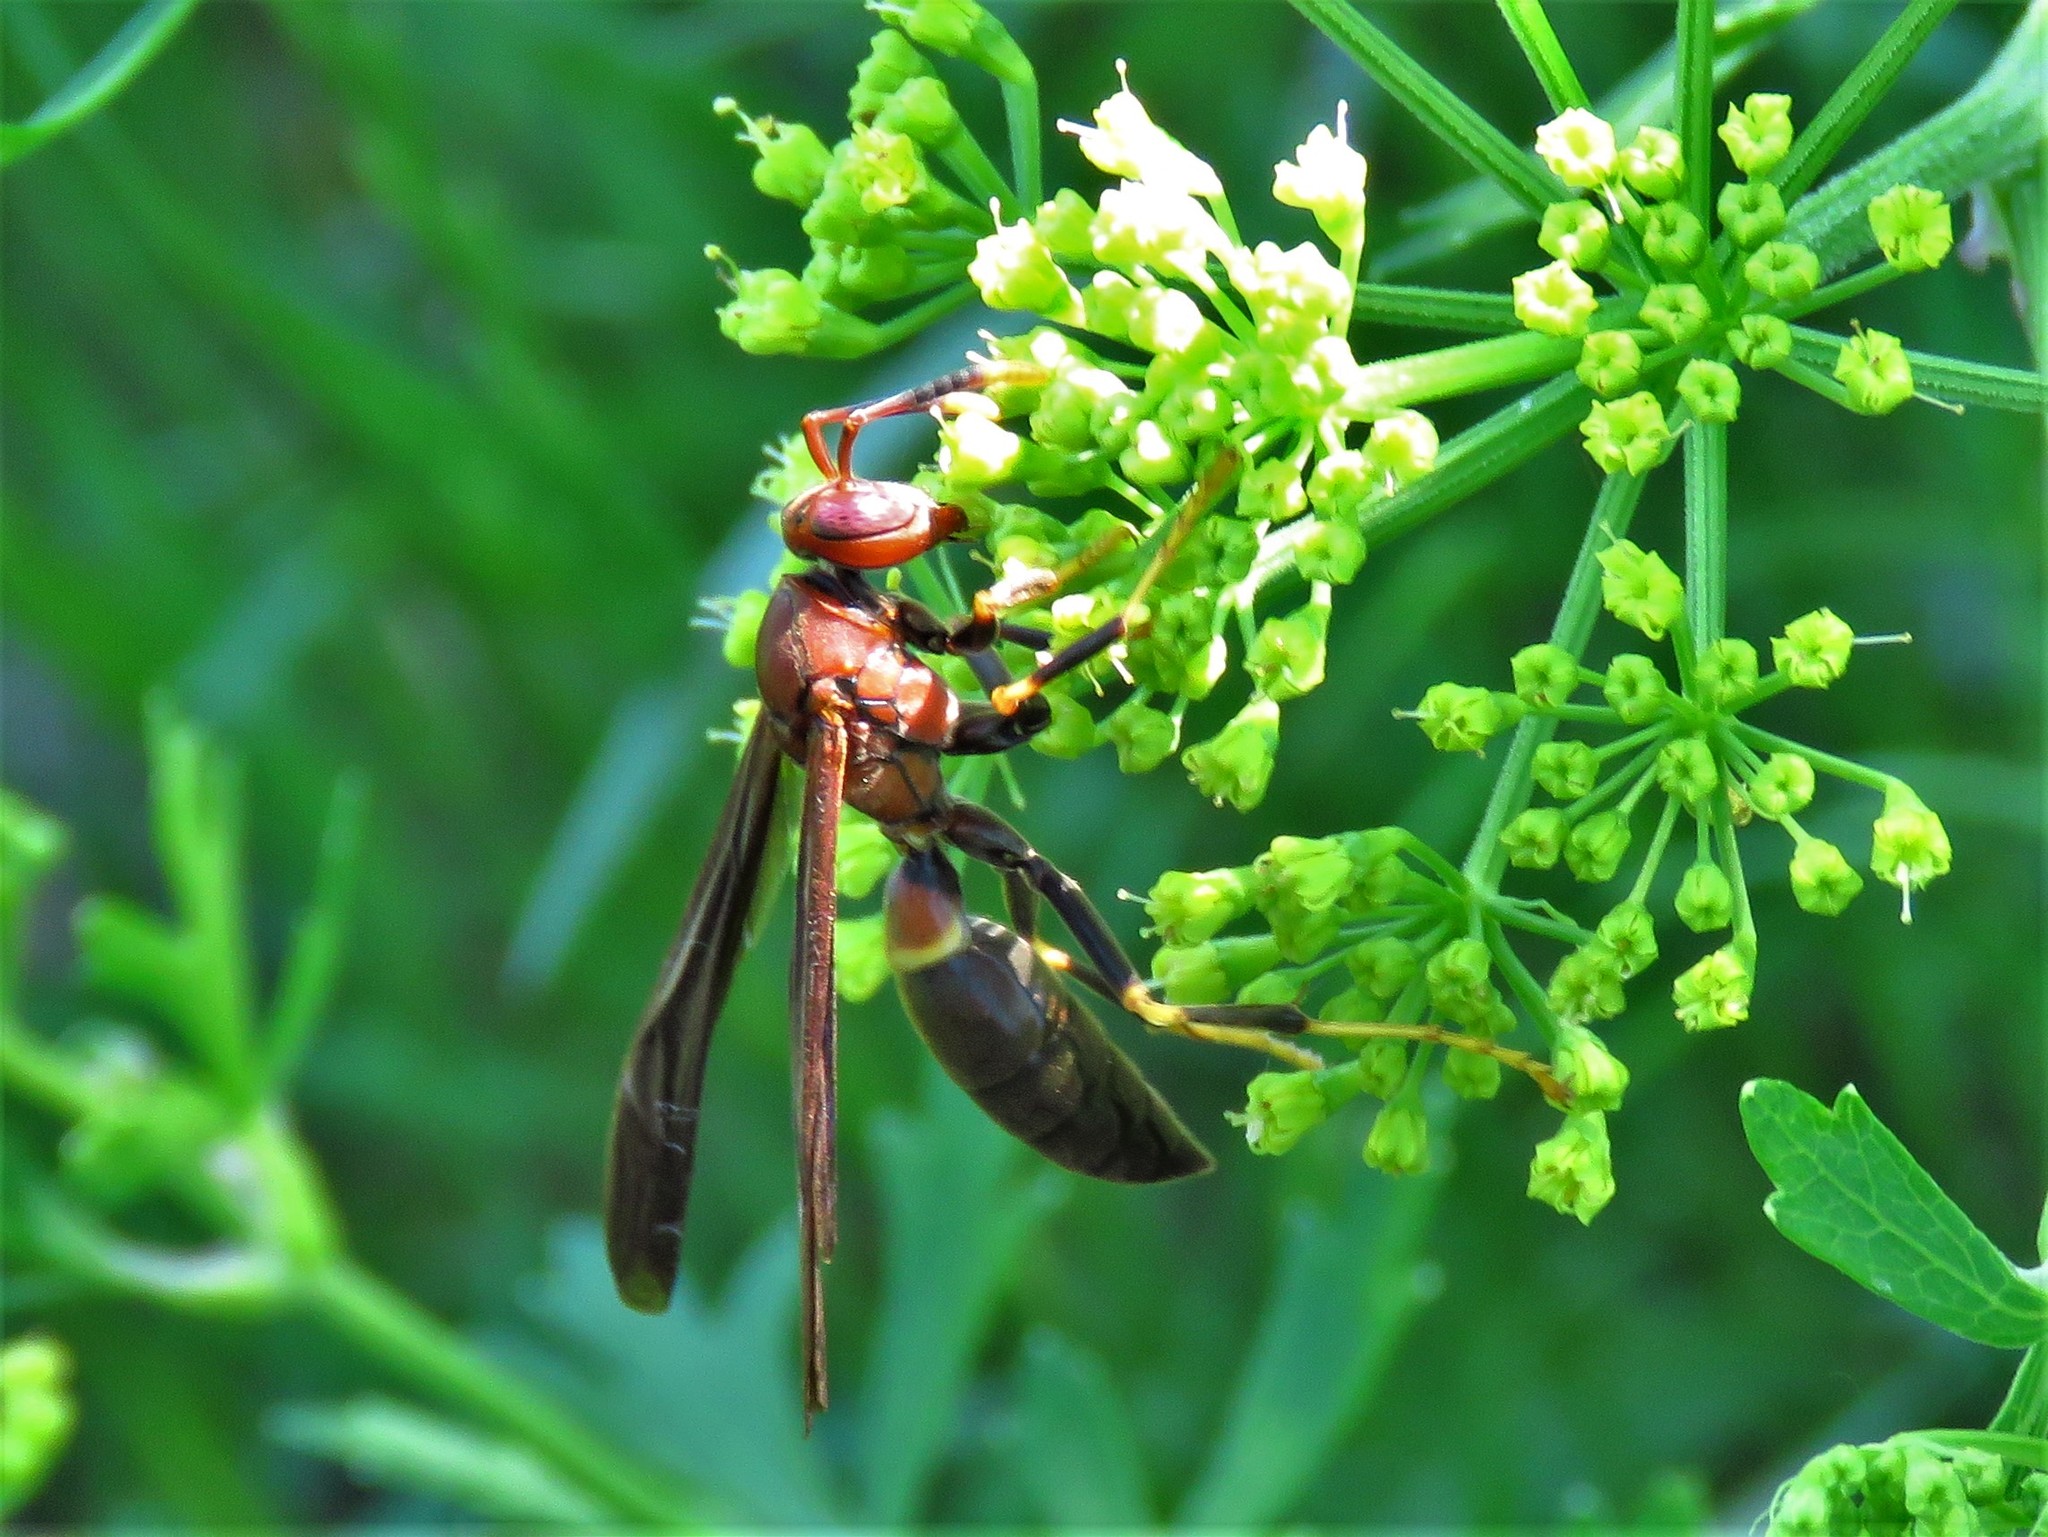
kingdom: Animalia
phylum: Arthropoda
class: Insecta
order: Hymenoptera
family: Eumenidae
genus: Polistes
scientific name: Polistes annularis
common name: Ringed paper wasp
